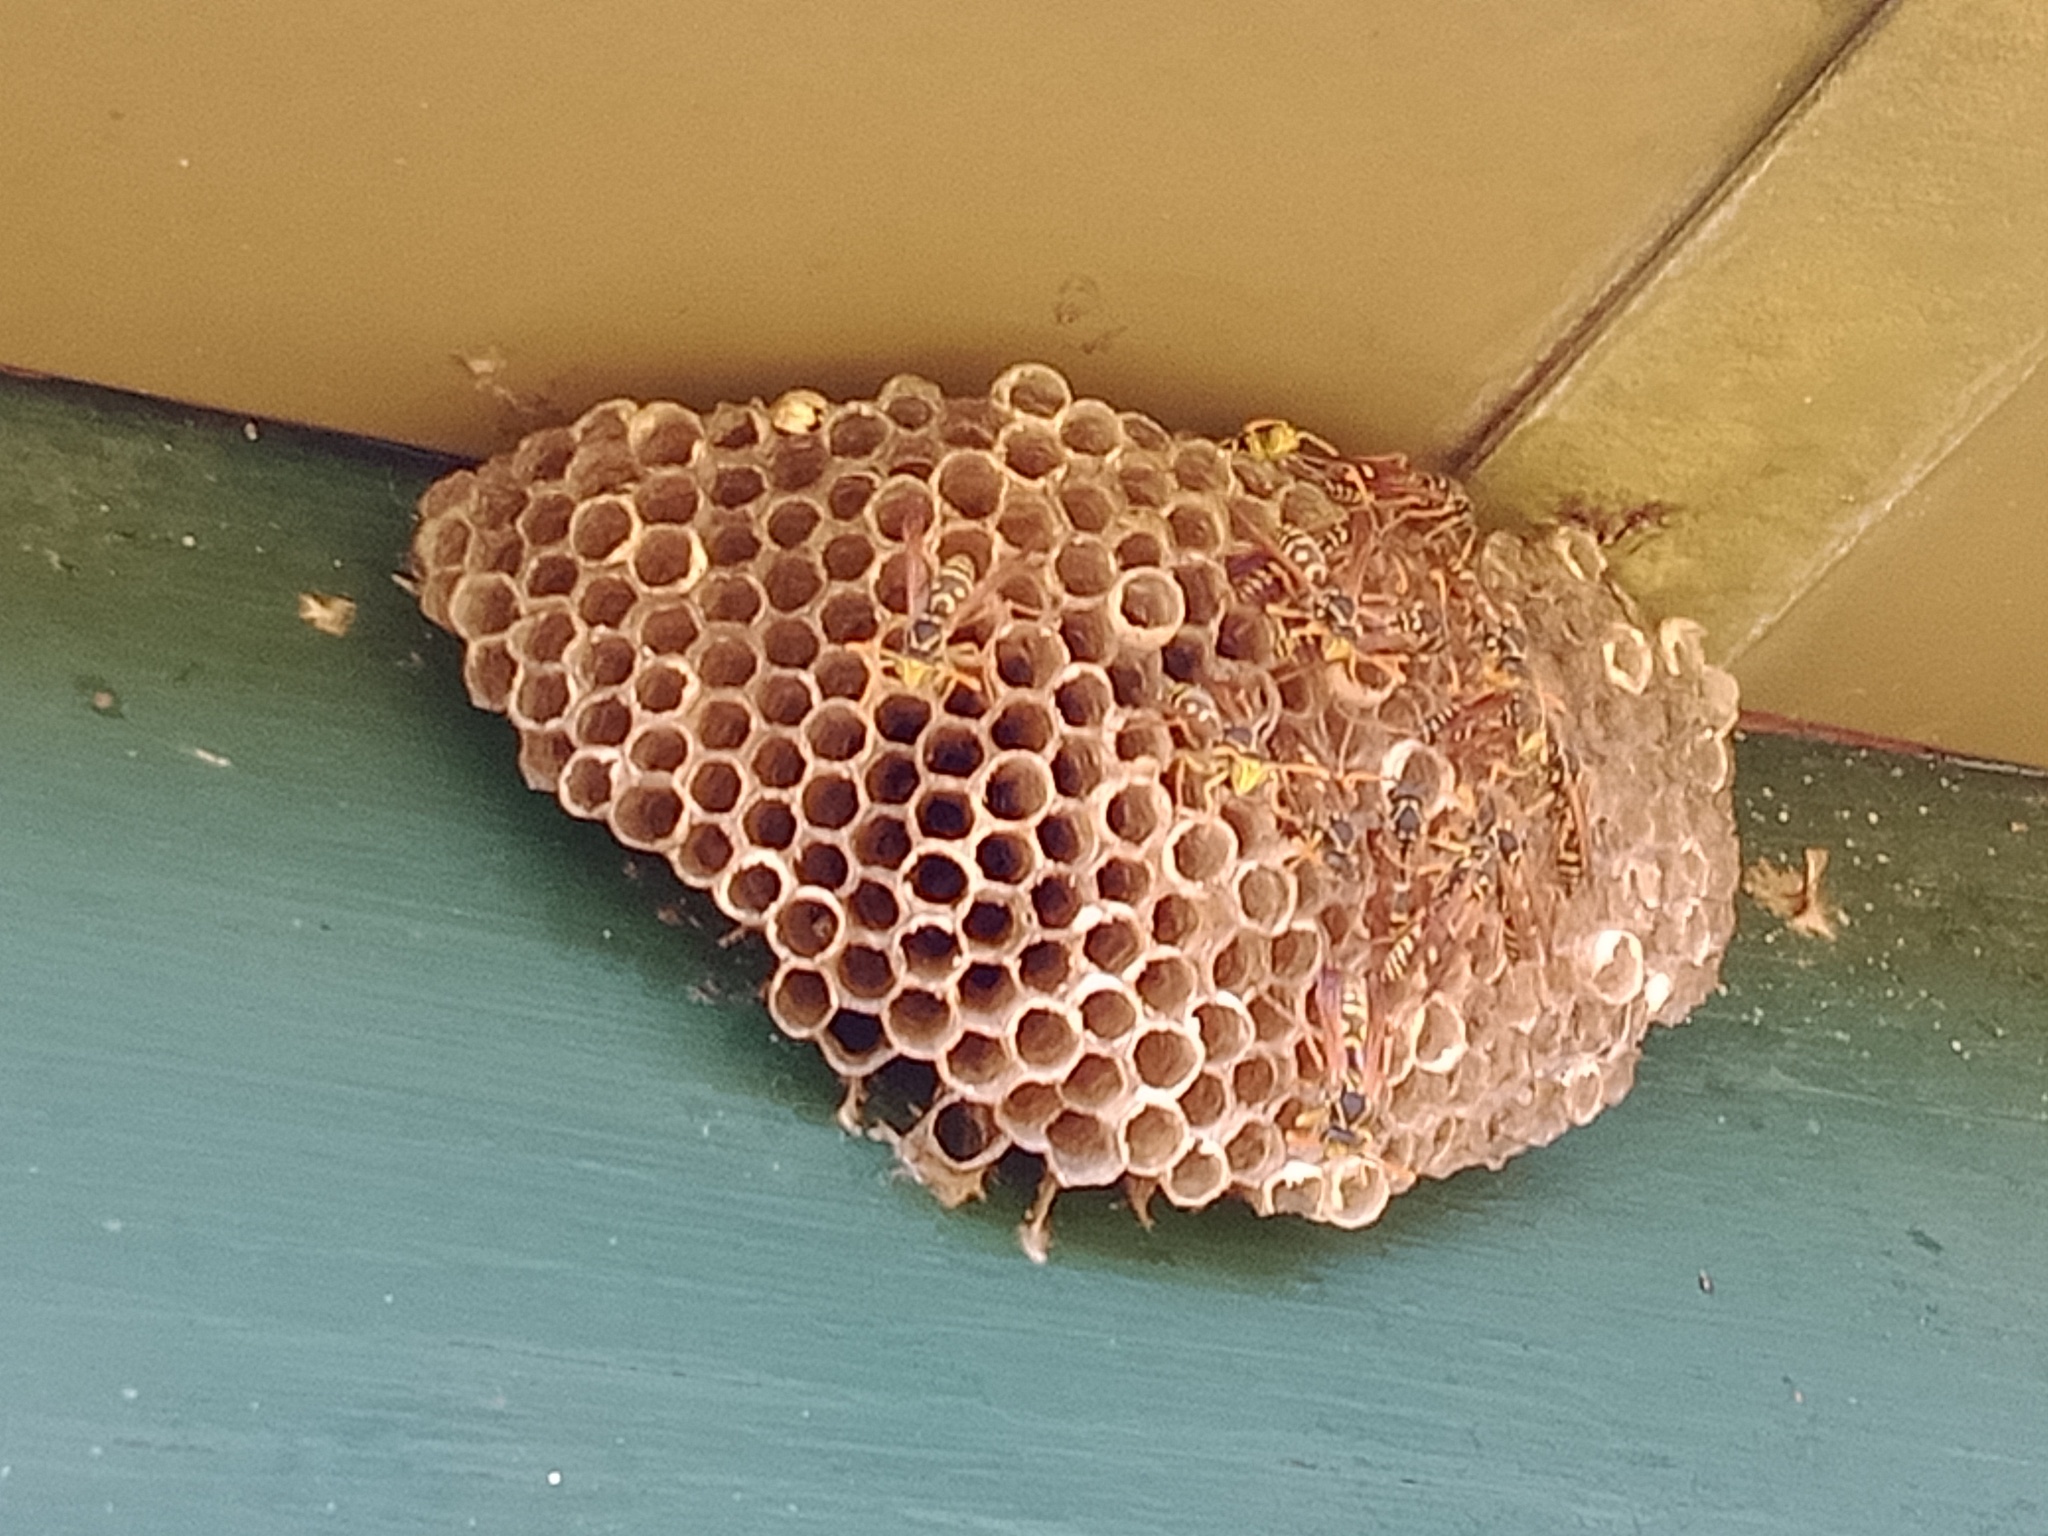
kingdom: Animalia
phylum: Arthropoda
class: Insecta
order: Hymenoptera
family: Eumenidae
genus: Polistes
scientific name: Polistes chinensis
